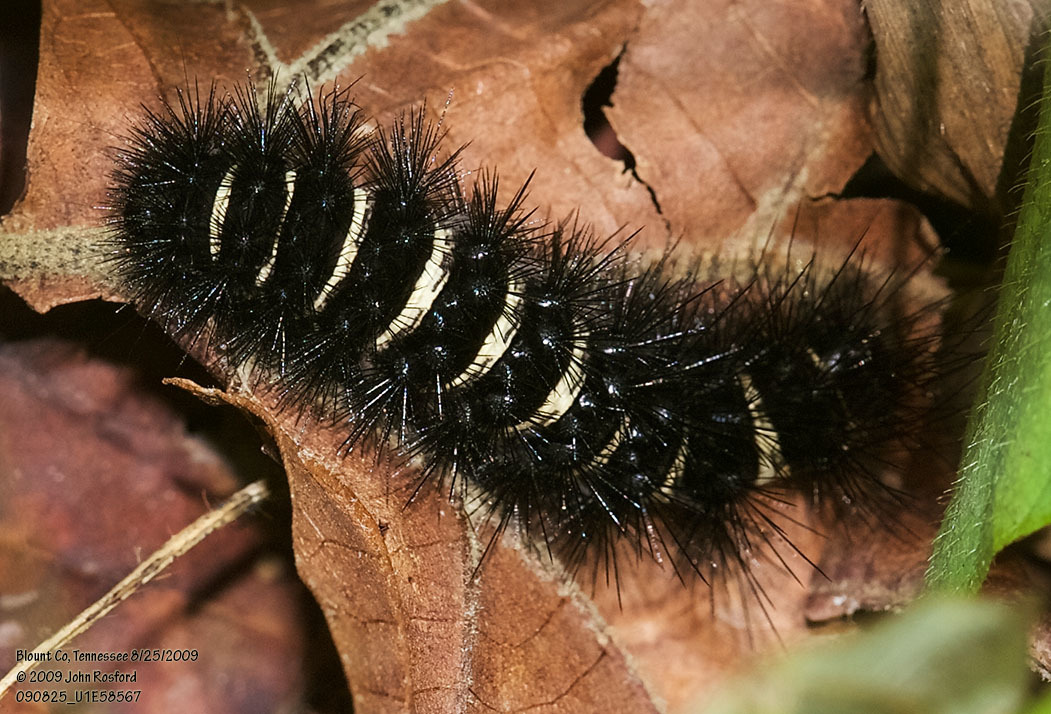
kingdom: Animalia
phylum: Arthropoda
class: Insecta
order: Lepidoptera
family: Erebidae
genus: Spilosoma
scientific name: Spilosoma congrua
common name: Agreeable tiger moth
